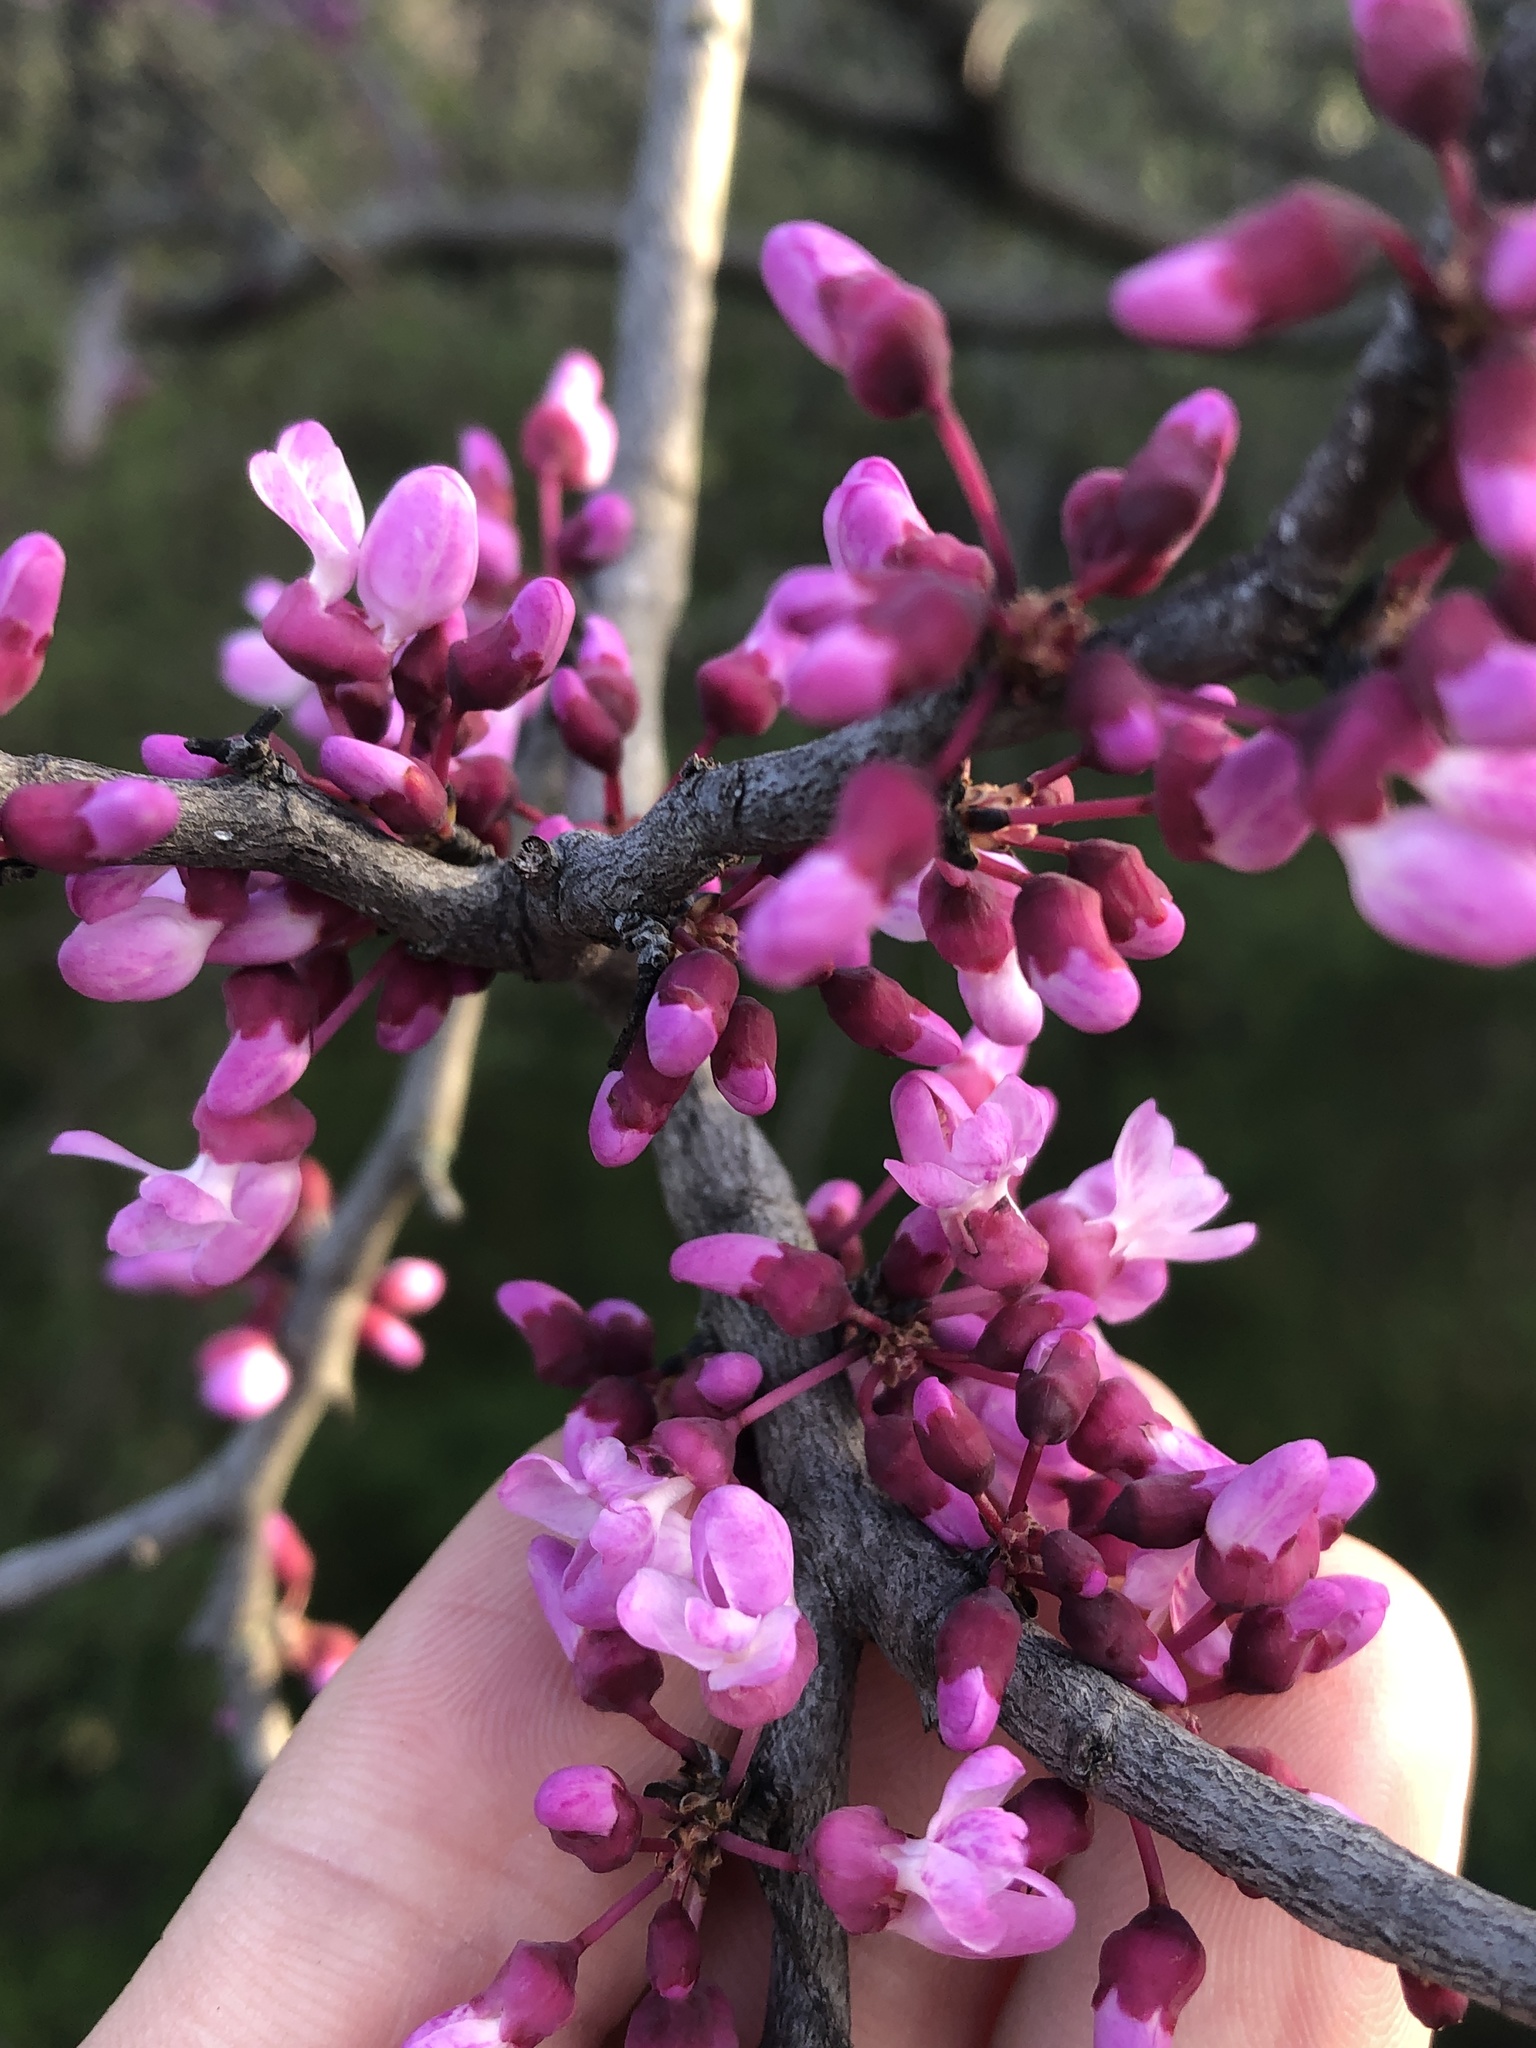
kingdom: Plantae
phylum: Tracheophyta
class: Magnoliopsida
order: Fabales
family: Fabaceae
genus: Cercis
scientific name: Cercis canadensis
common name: Eastern redbud
